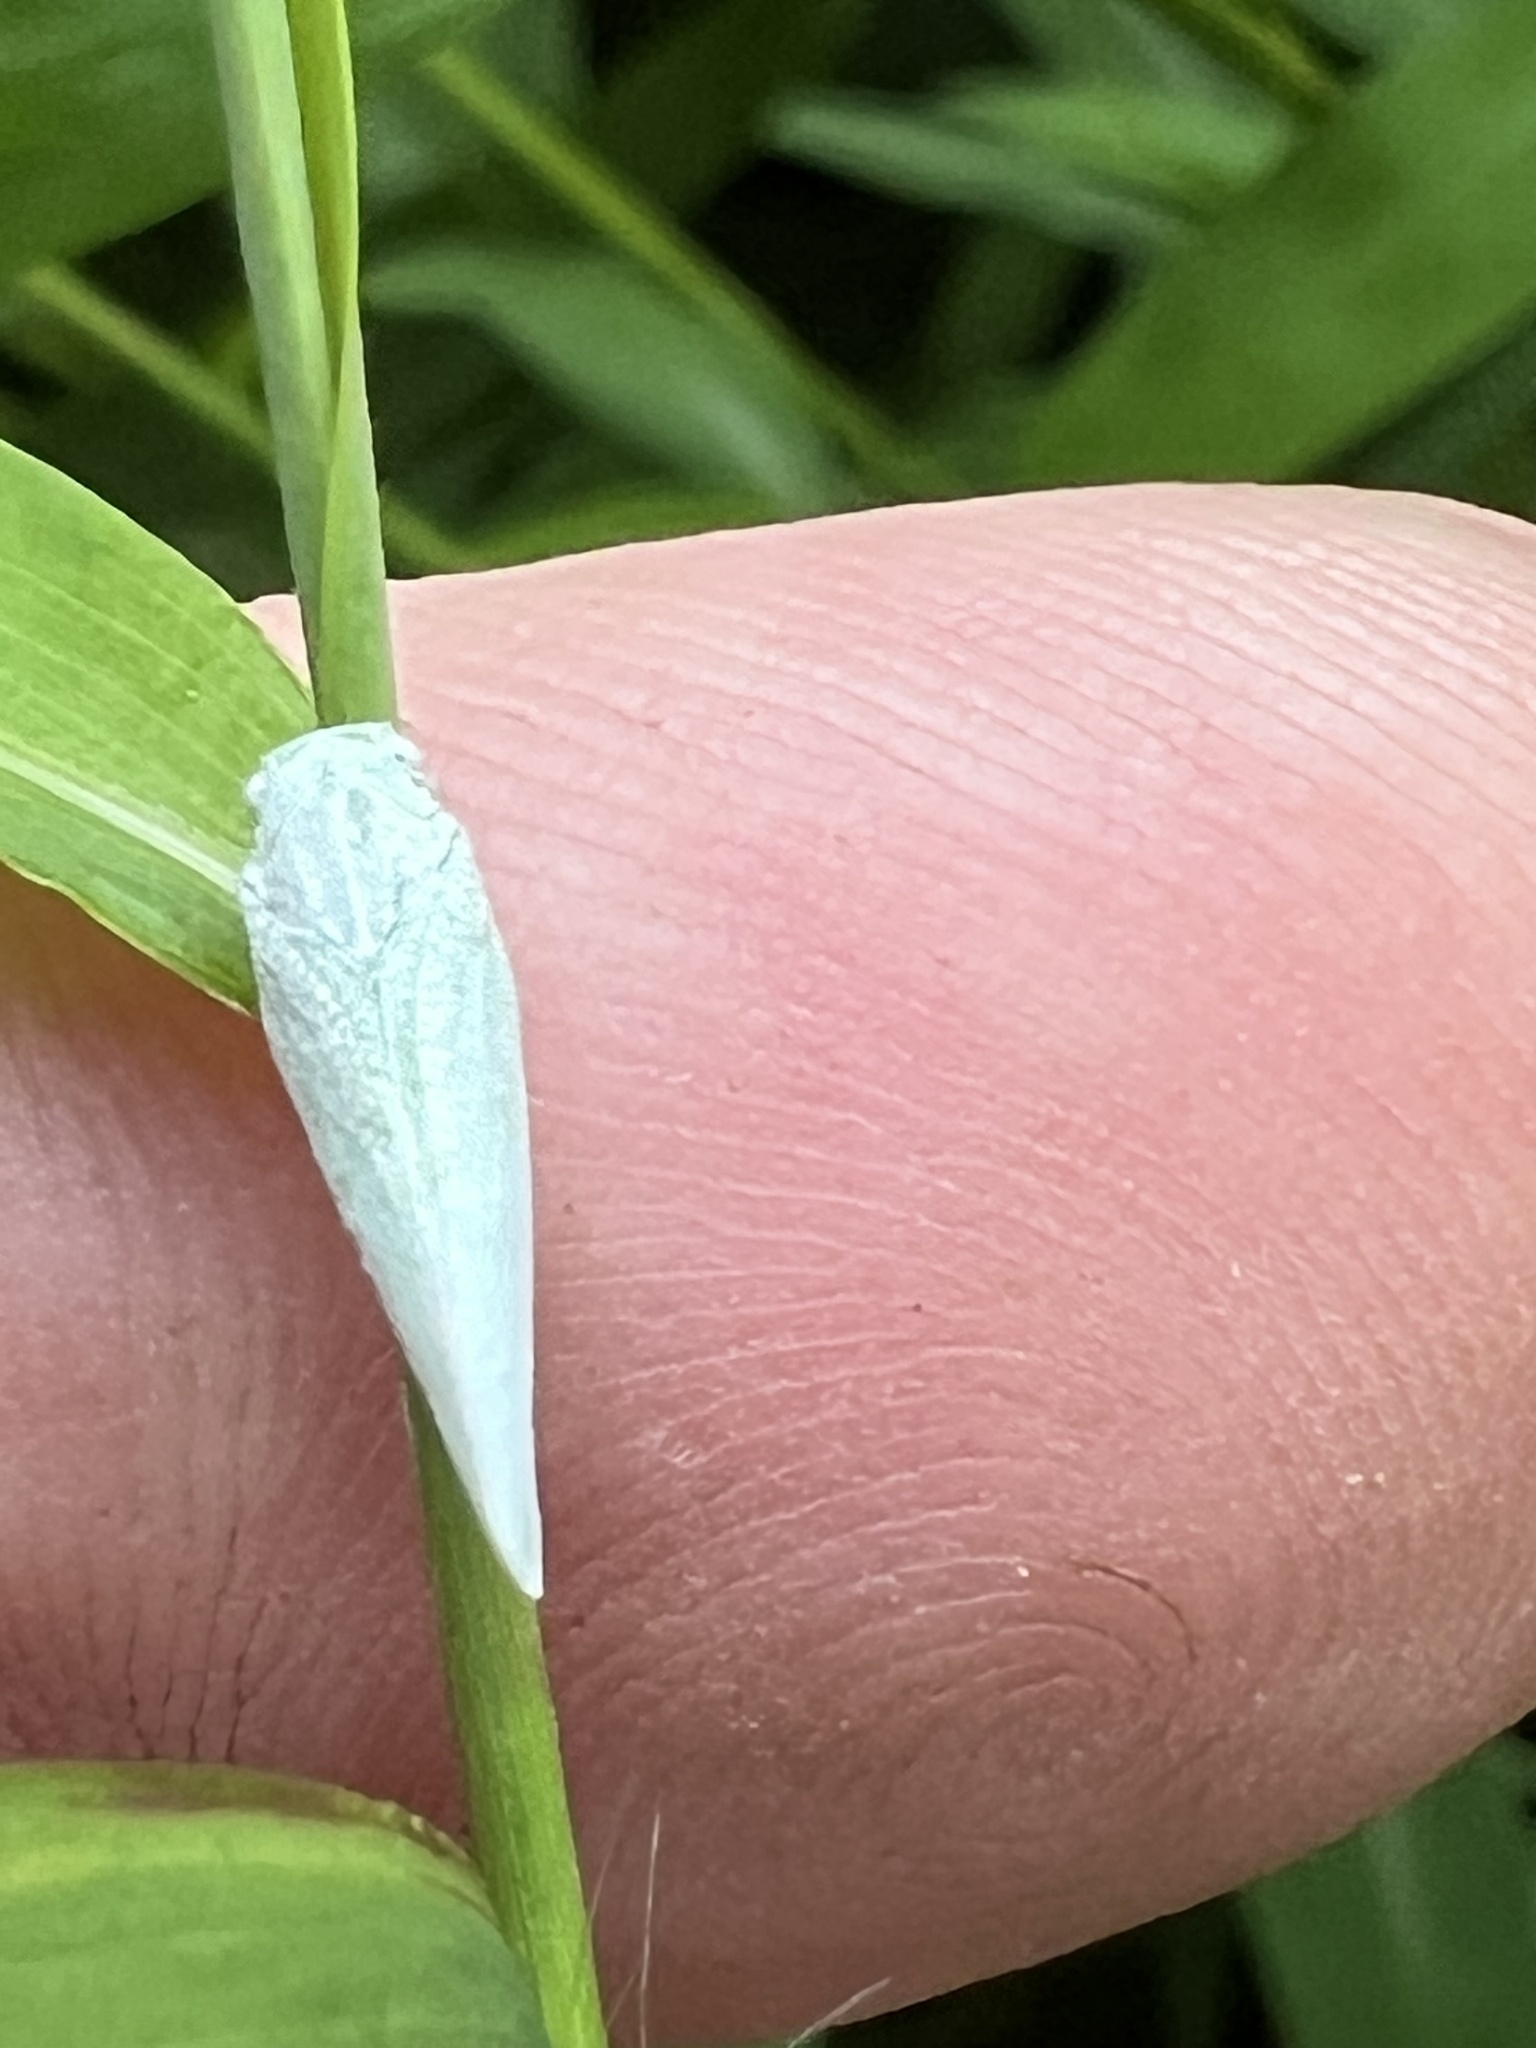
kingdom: Animalia
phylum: Arthropoda
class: Insecta
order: Hemiptera
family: Flatidae
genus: Flatormenis
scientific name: Flatormenis proxima
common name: Northern flatid planthopper
